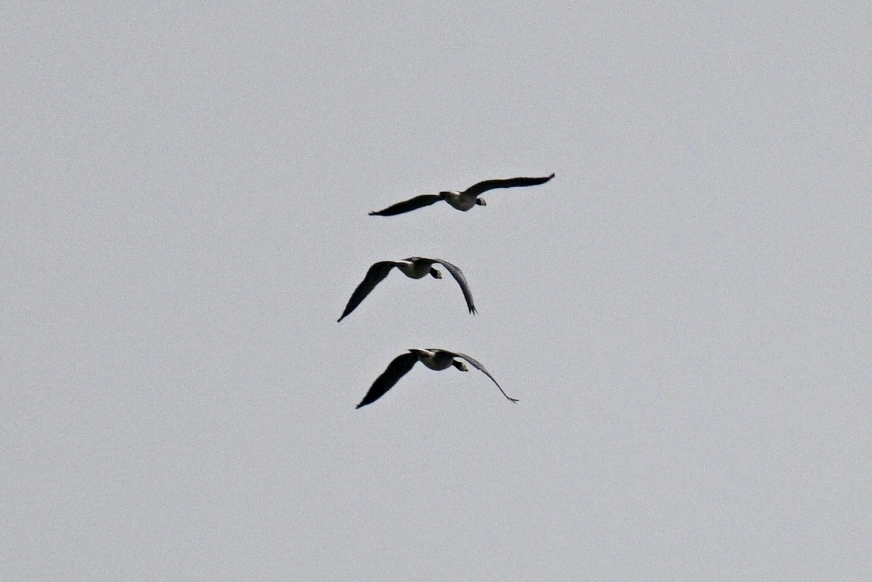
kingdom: Animalia
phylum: Chordata
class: Aves
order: Anseriformes
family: Anatidae
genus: Branta
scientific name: Branta leucopsis
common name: Barnacle goose
